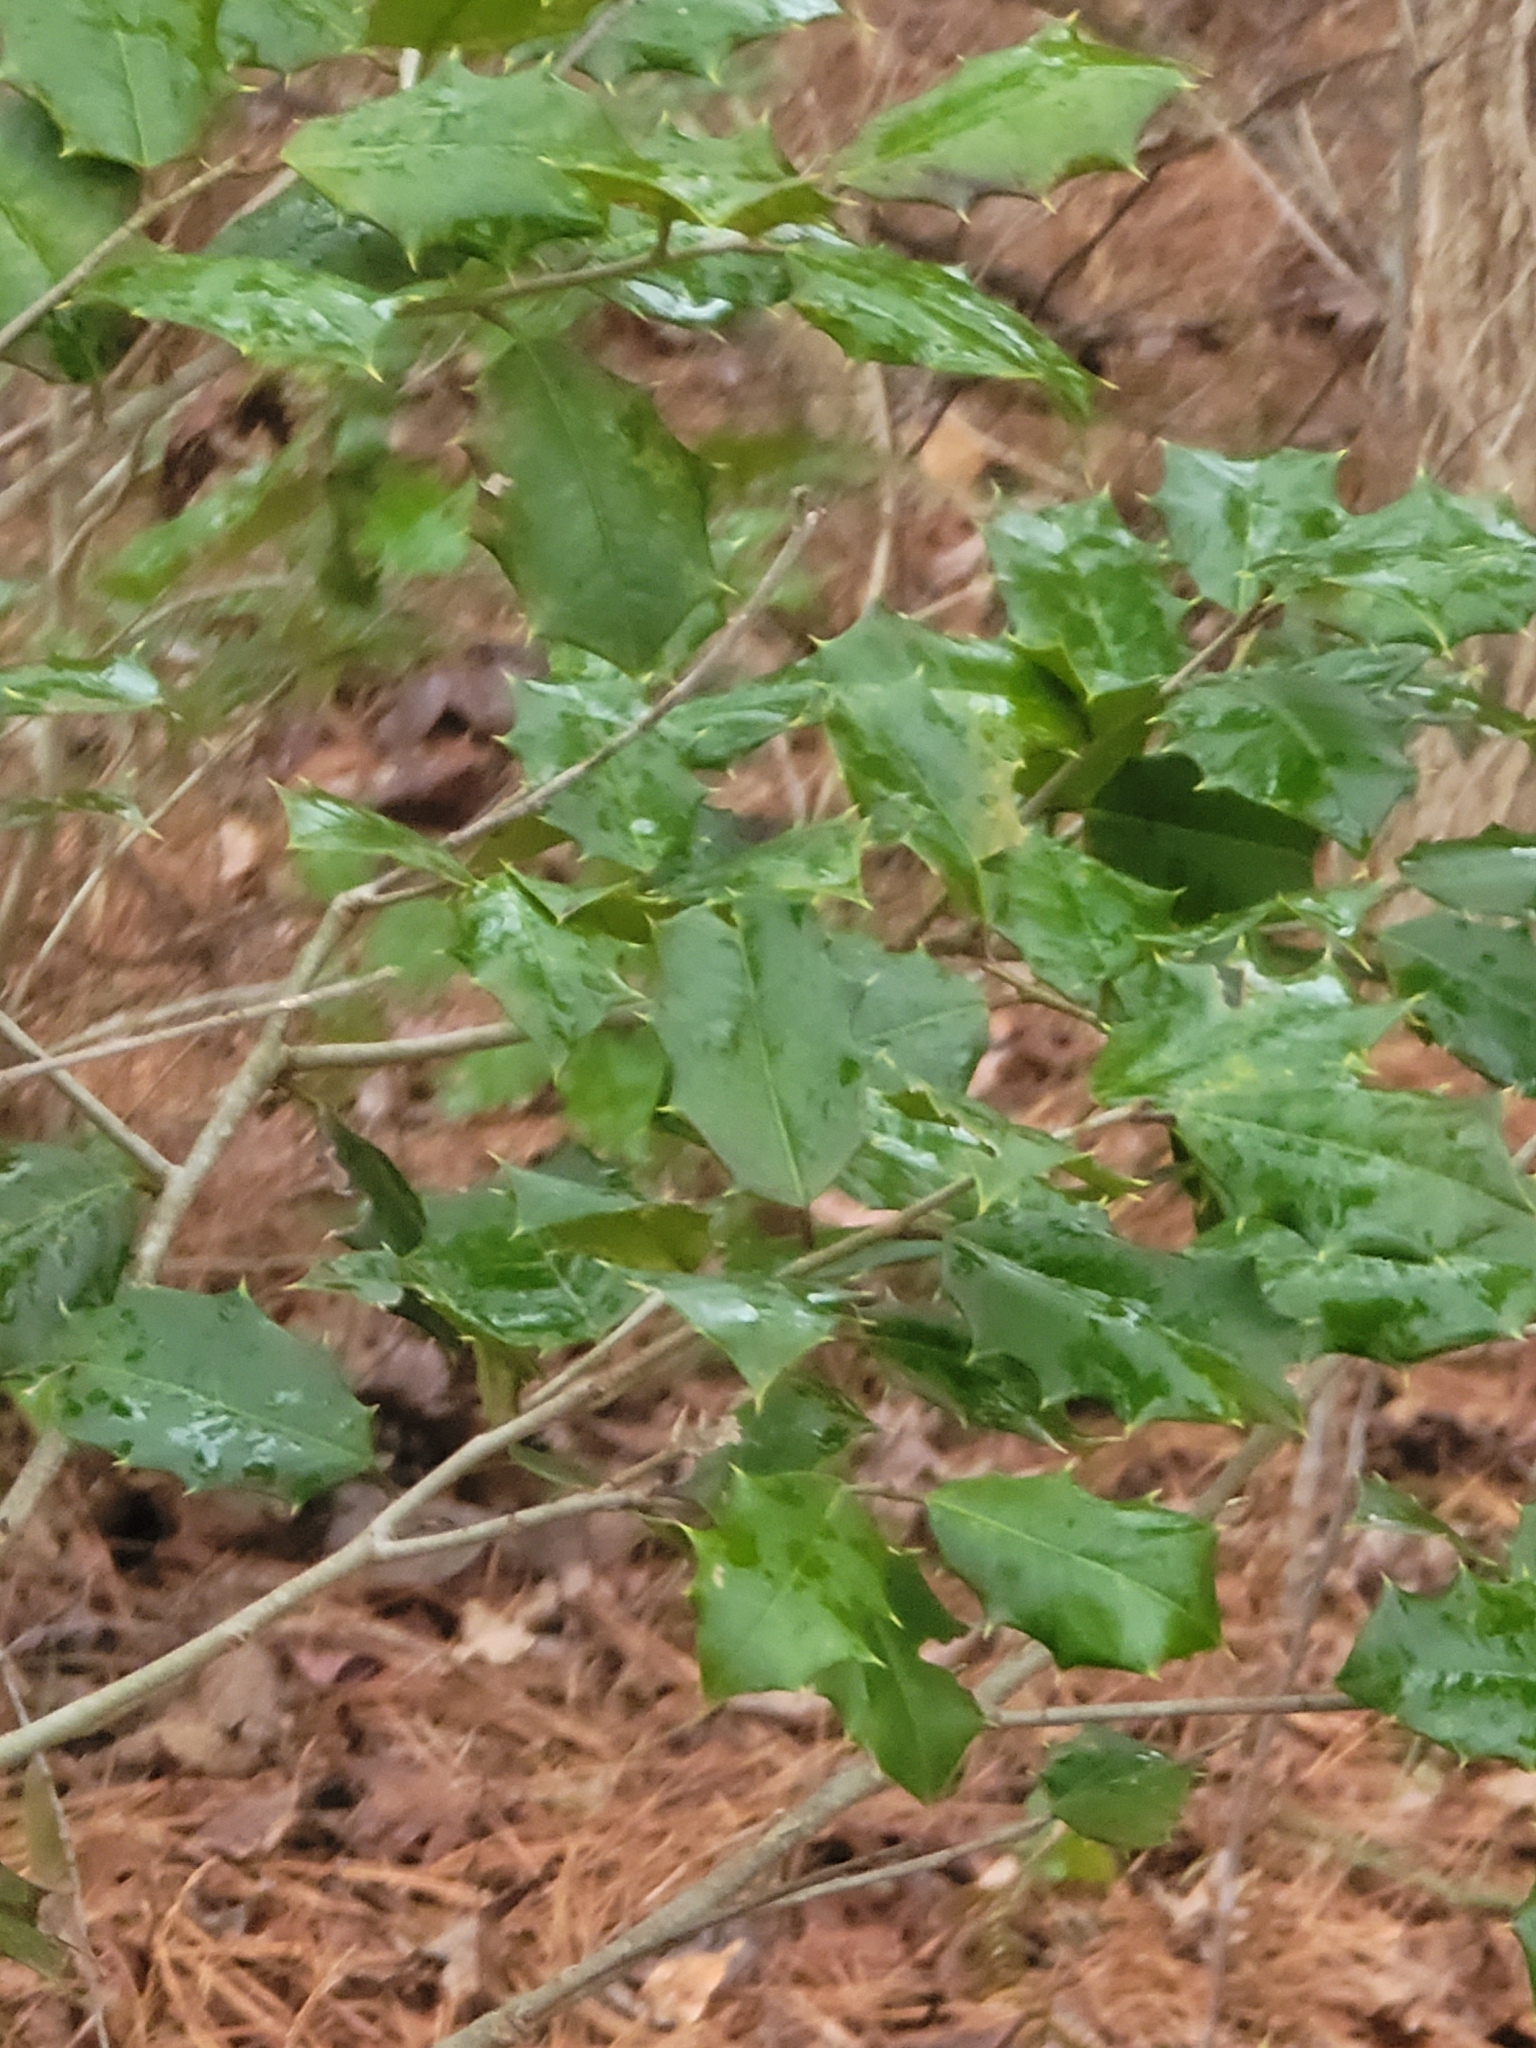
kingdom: Plantae
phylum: Tracheophyta
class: Magnoliopsida
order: Aquifoliales
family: Aquifoliaceae
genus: Ilex
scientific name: Ilex opaca
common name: American holly
